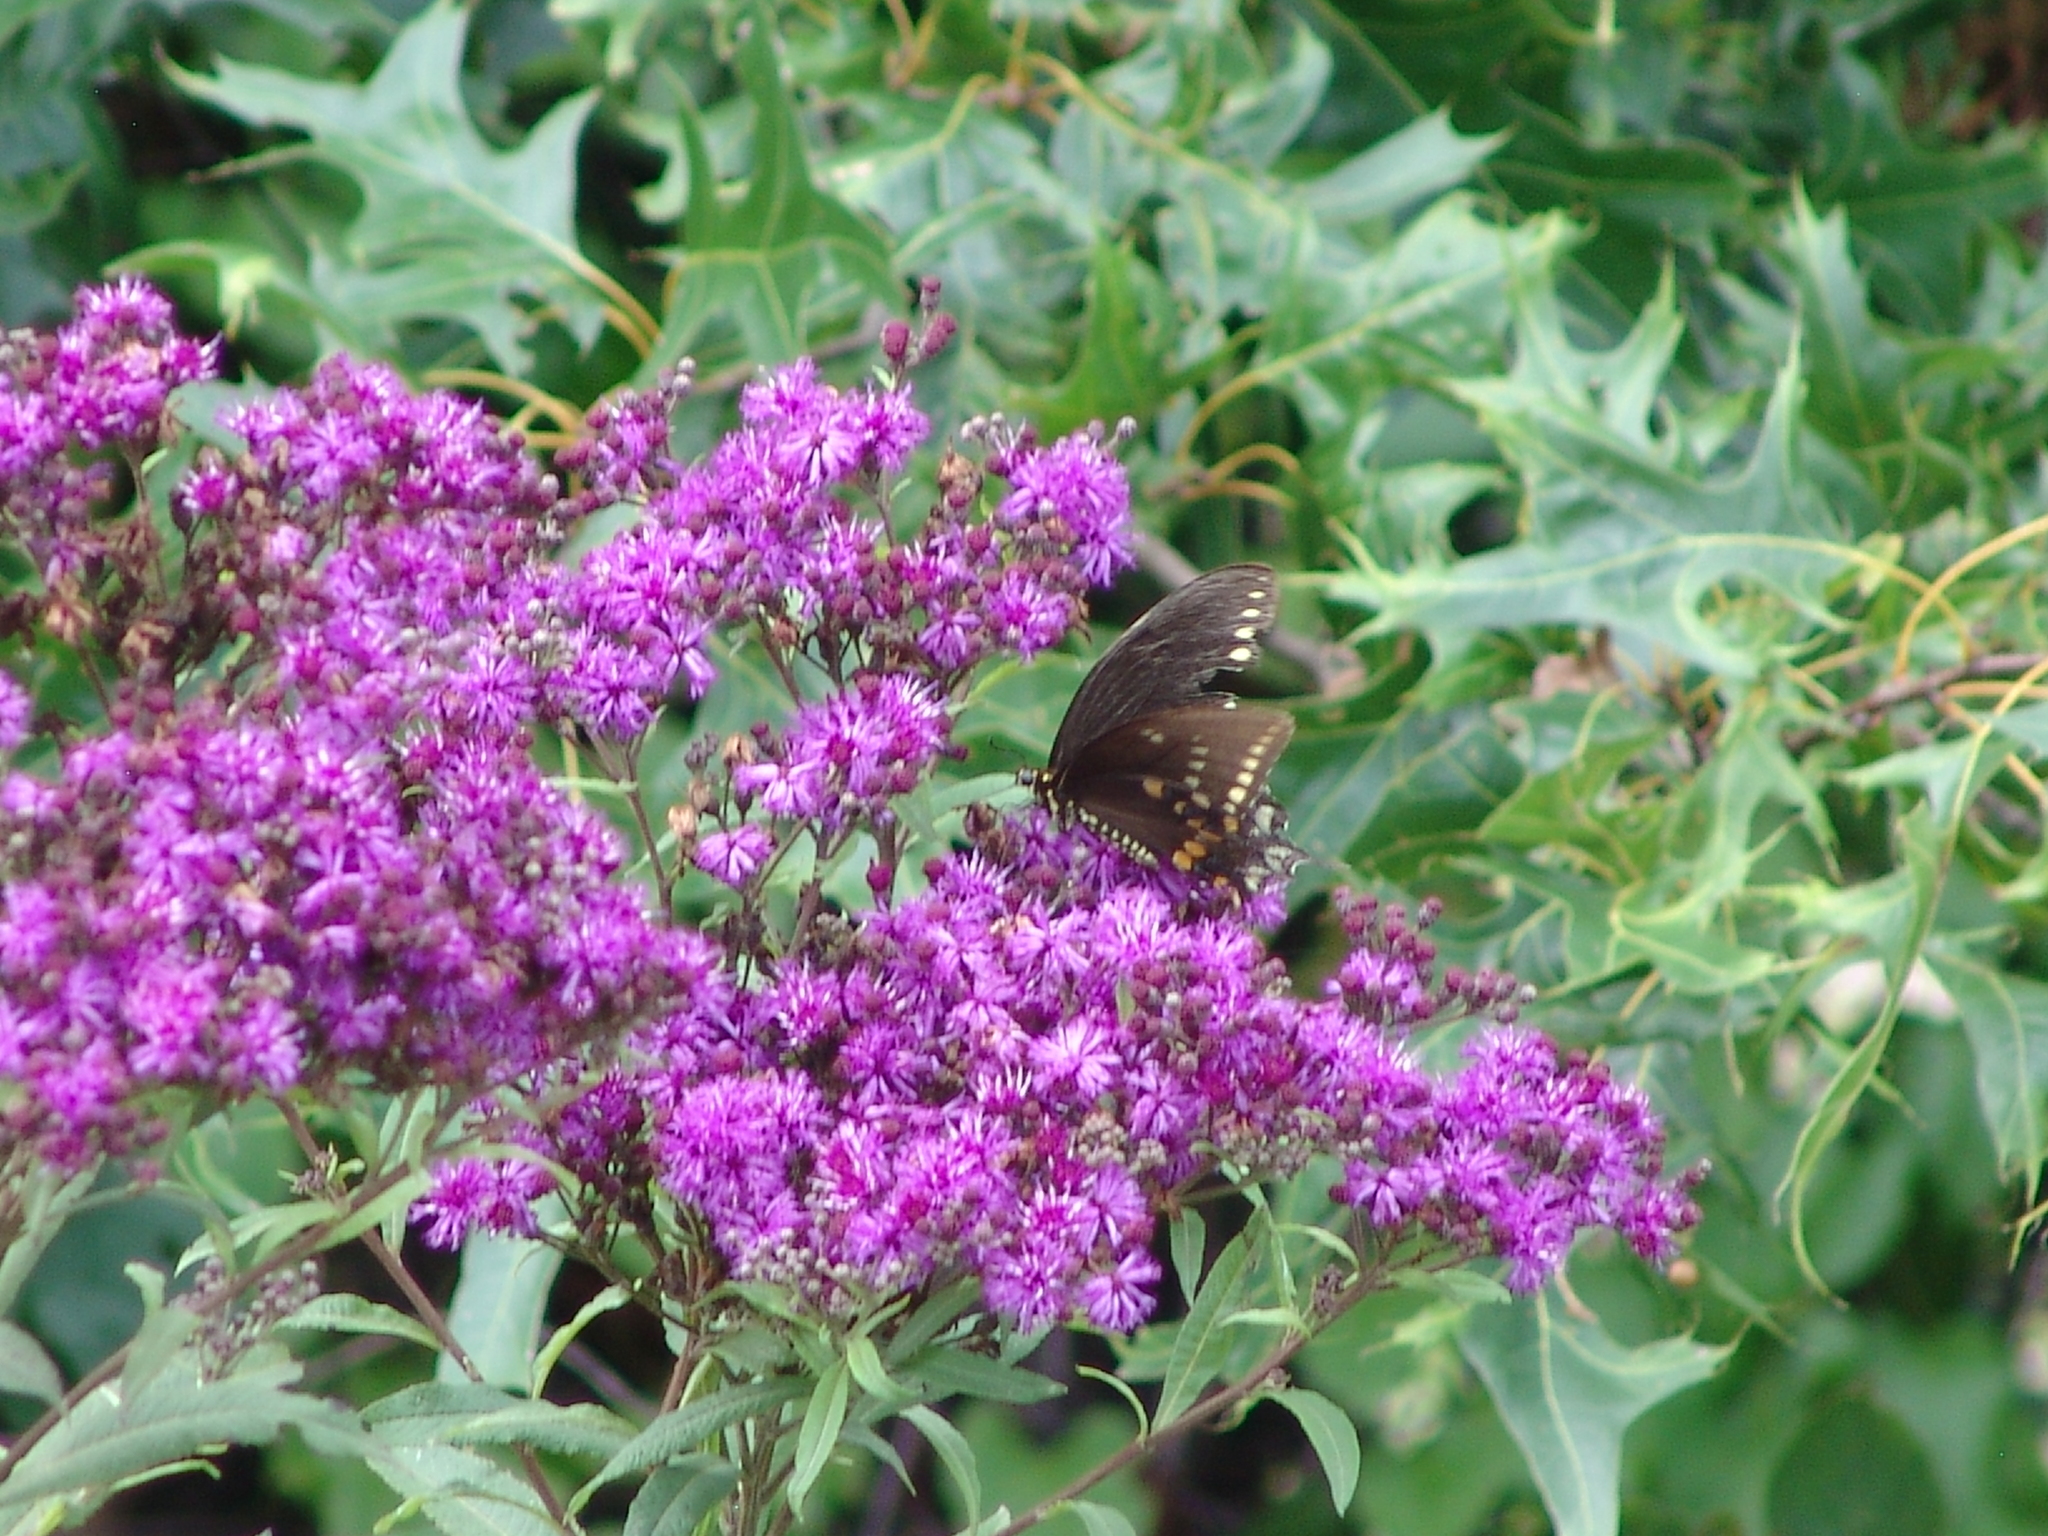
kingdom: Animalia
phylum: Arthropoda
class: Insecta
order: Lepidoptera
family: Papilionidae
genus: Papilio
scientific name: Papilio troilus
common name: Spicebush swallowtail
